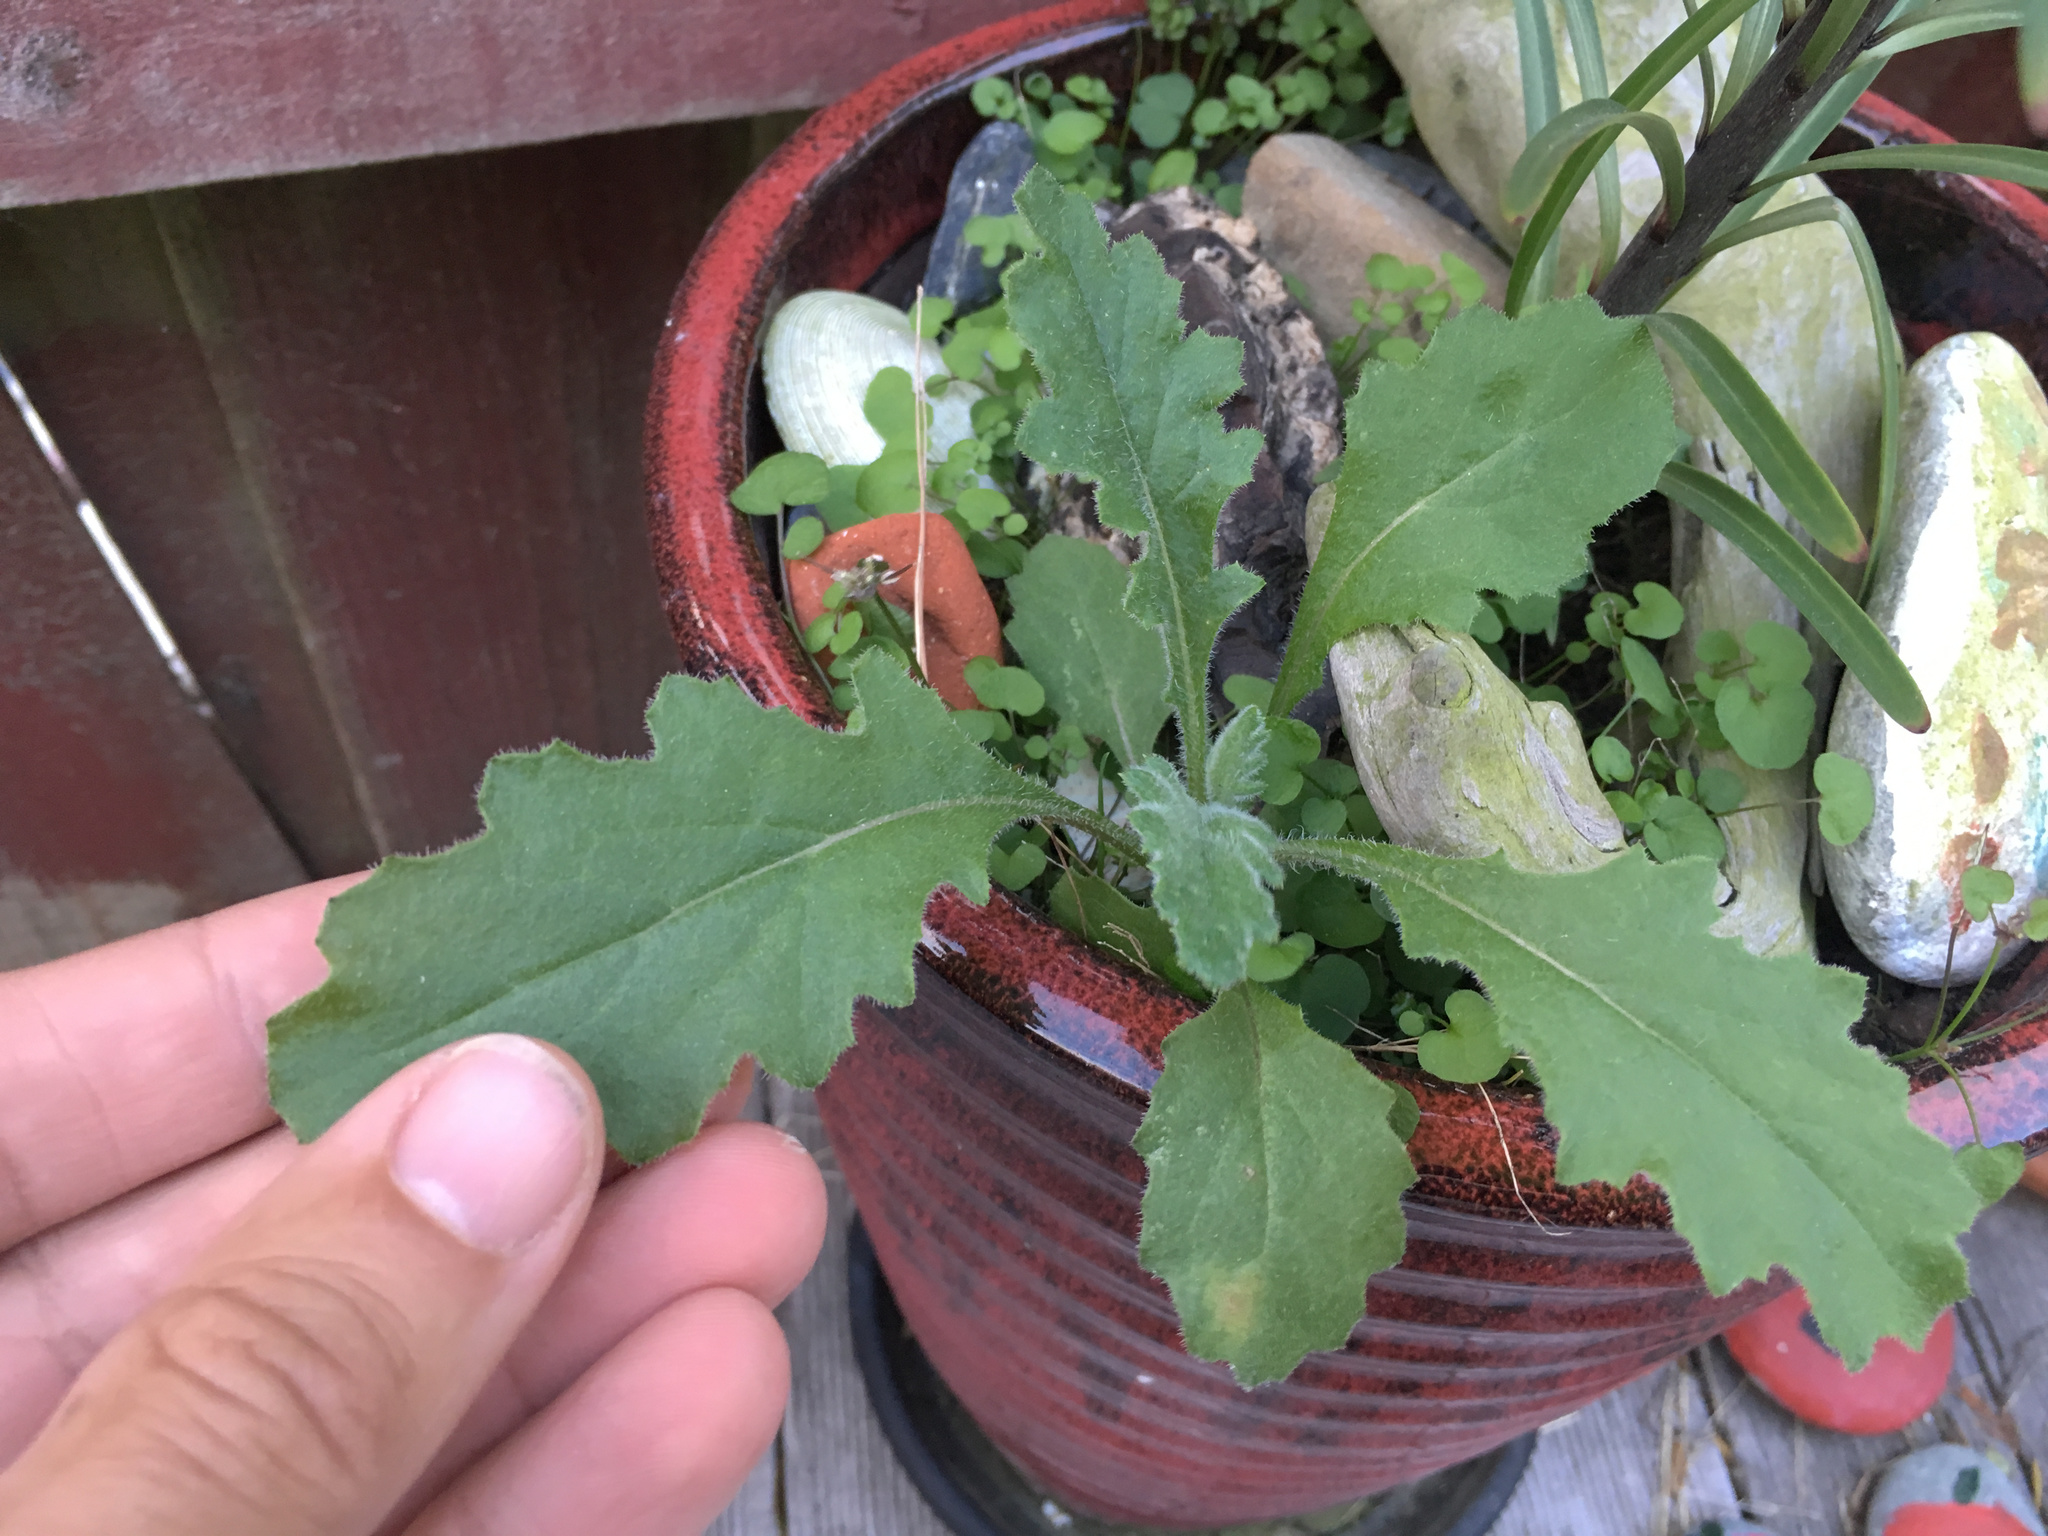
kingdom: Plantae
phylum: Tracheophyta
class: Magnoliopsida
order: Asterales
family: Asteraceae
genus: Senecio
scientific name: Senecio glomeratus
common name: Cutleaf burnweed
